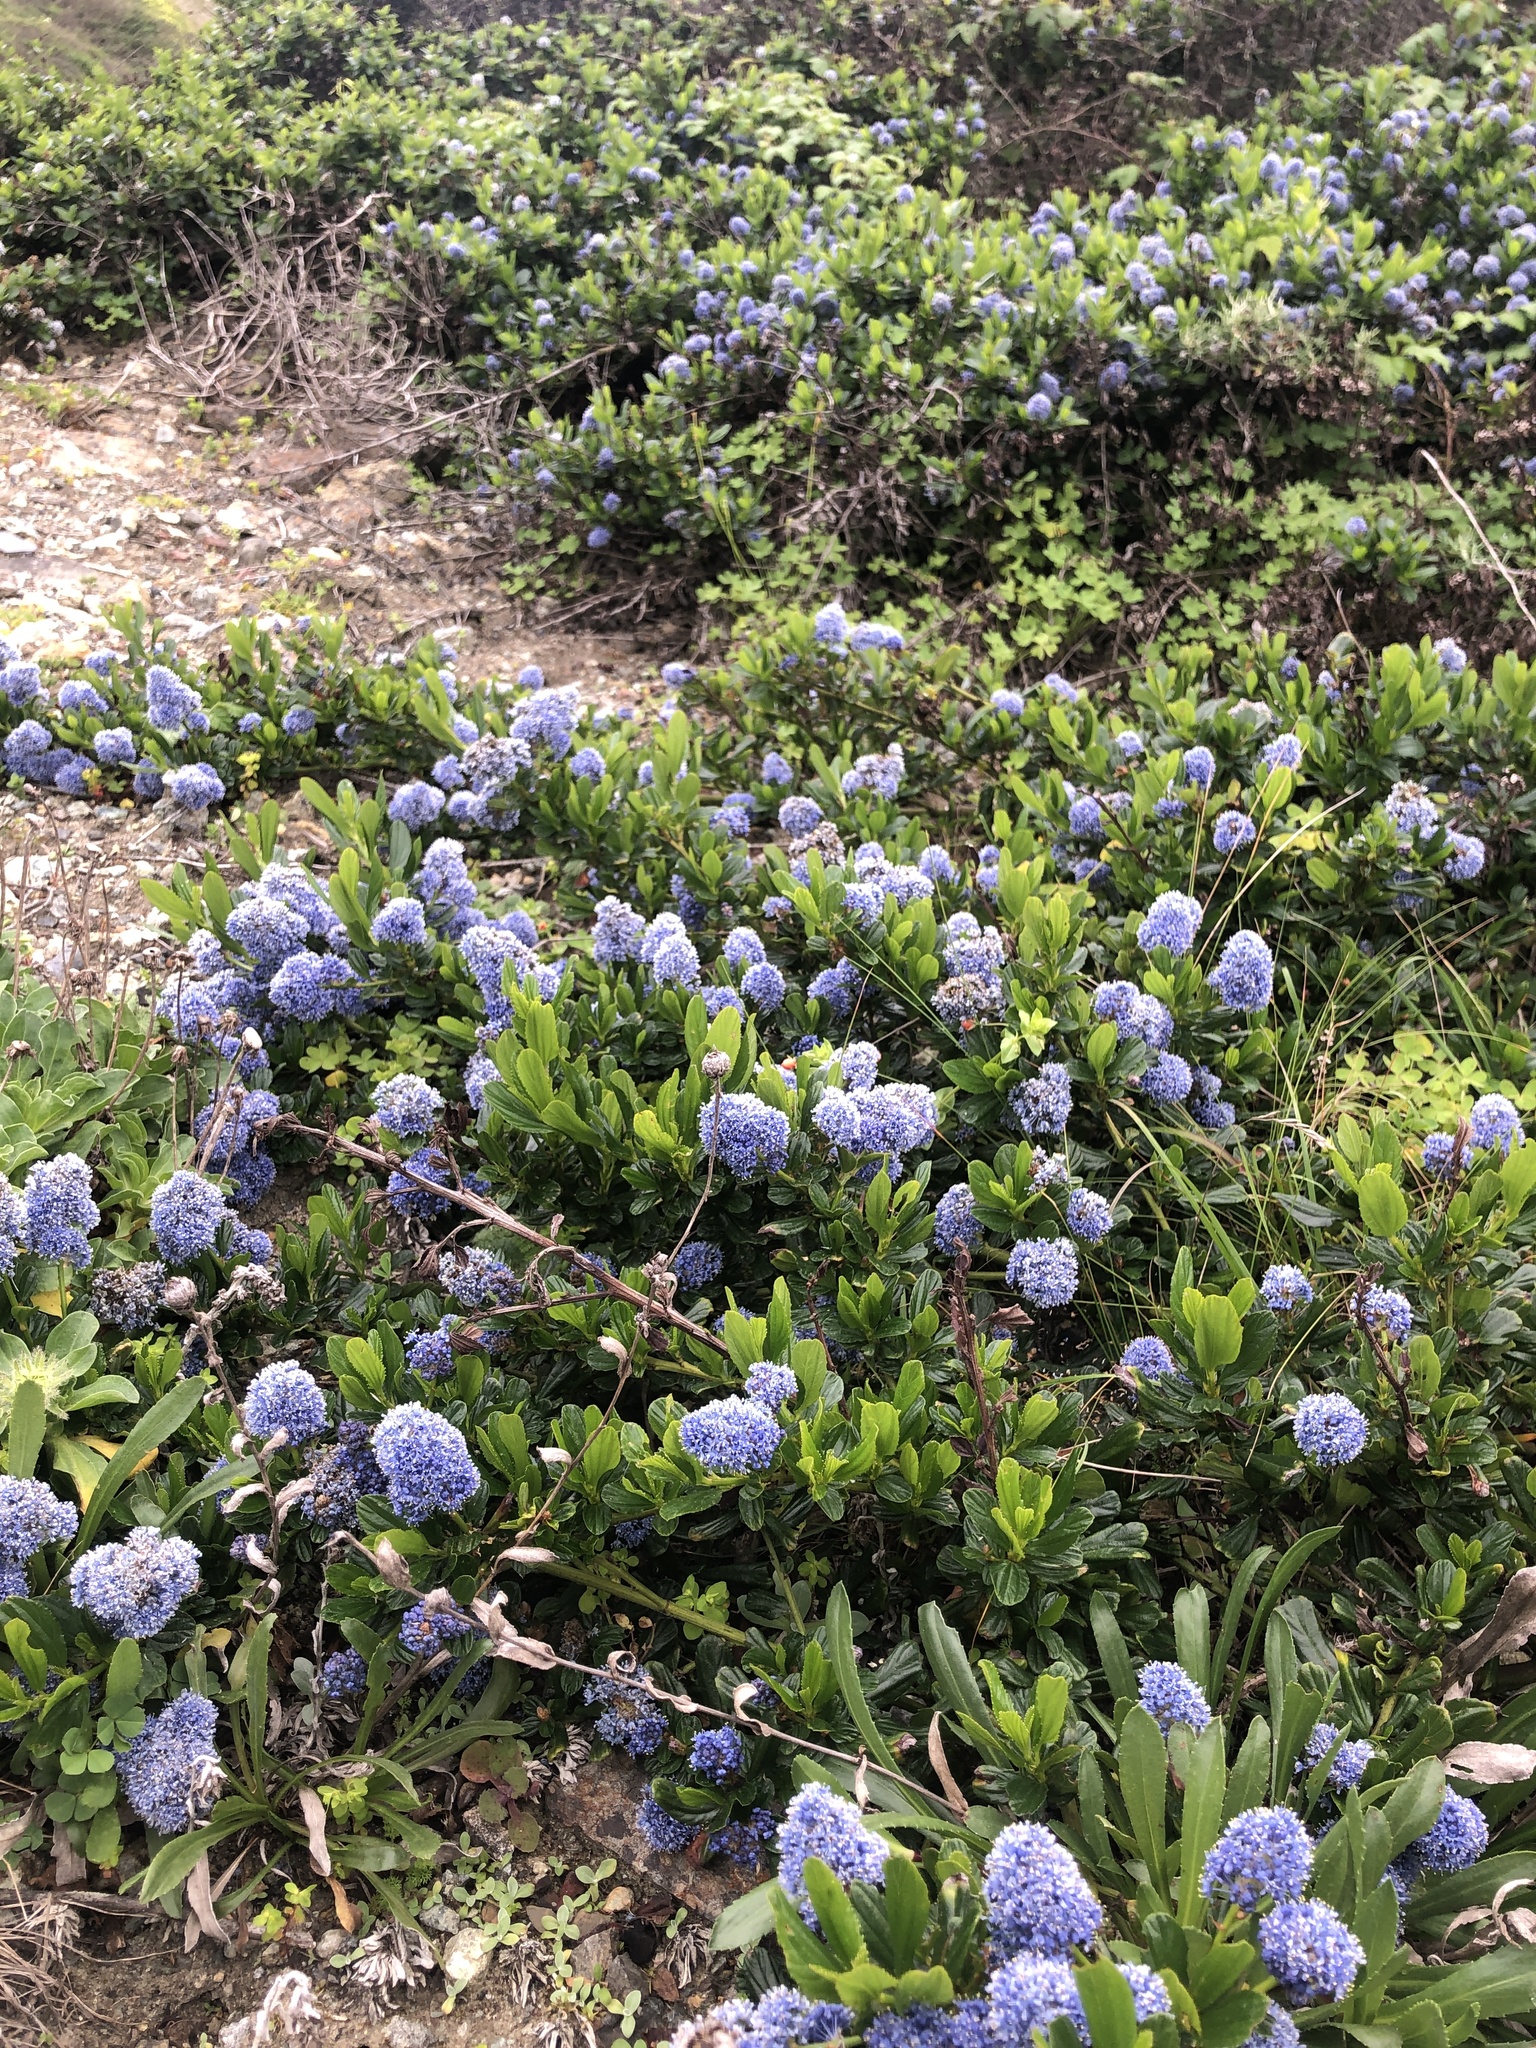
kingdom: Plantae
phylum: Tracheophyta
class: Magnoliopsida
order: Rosales
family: Rhamnaceae
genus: Ceanothus
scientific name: Ceanothus thyrsiflorus
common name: California-lilac
